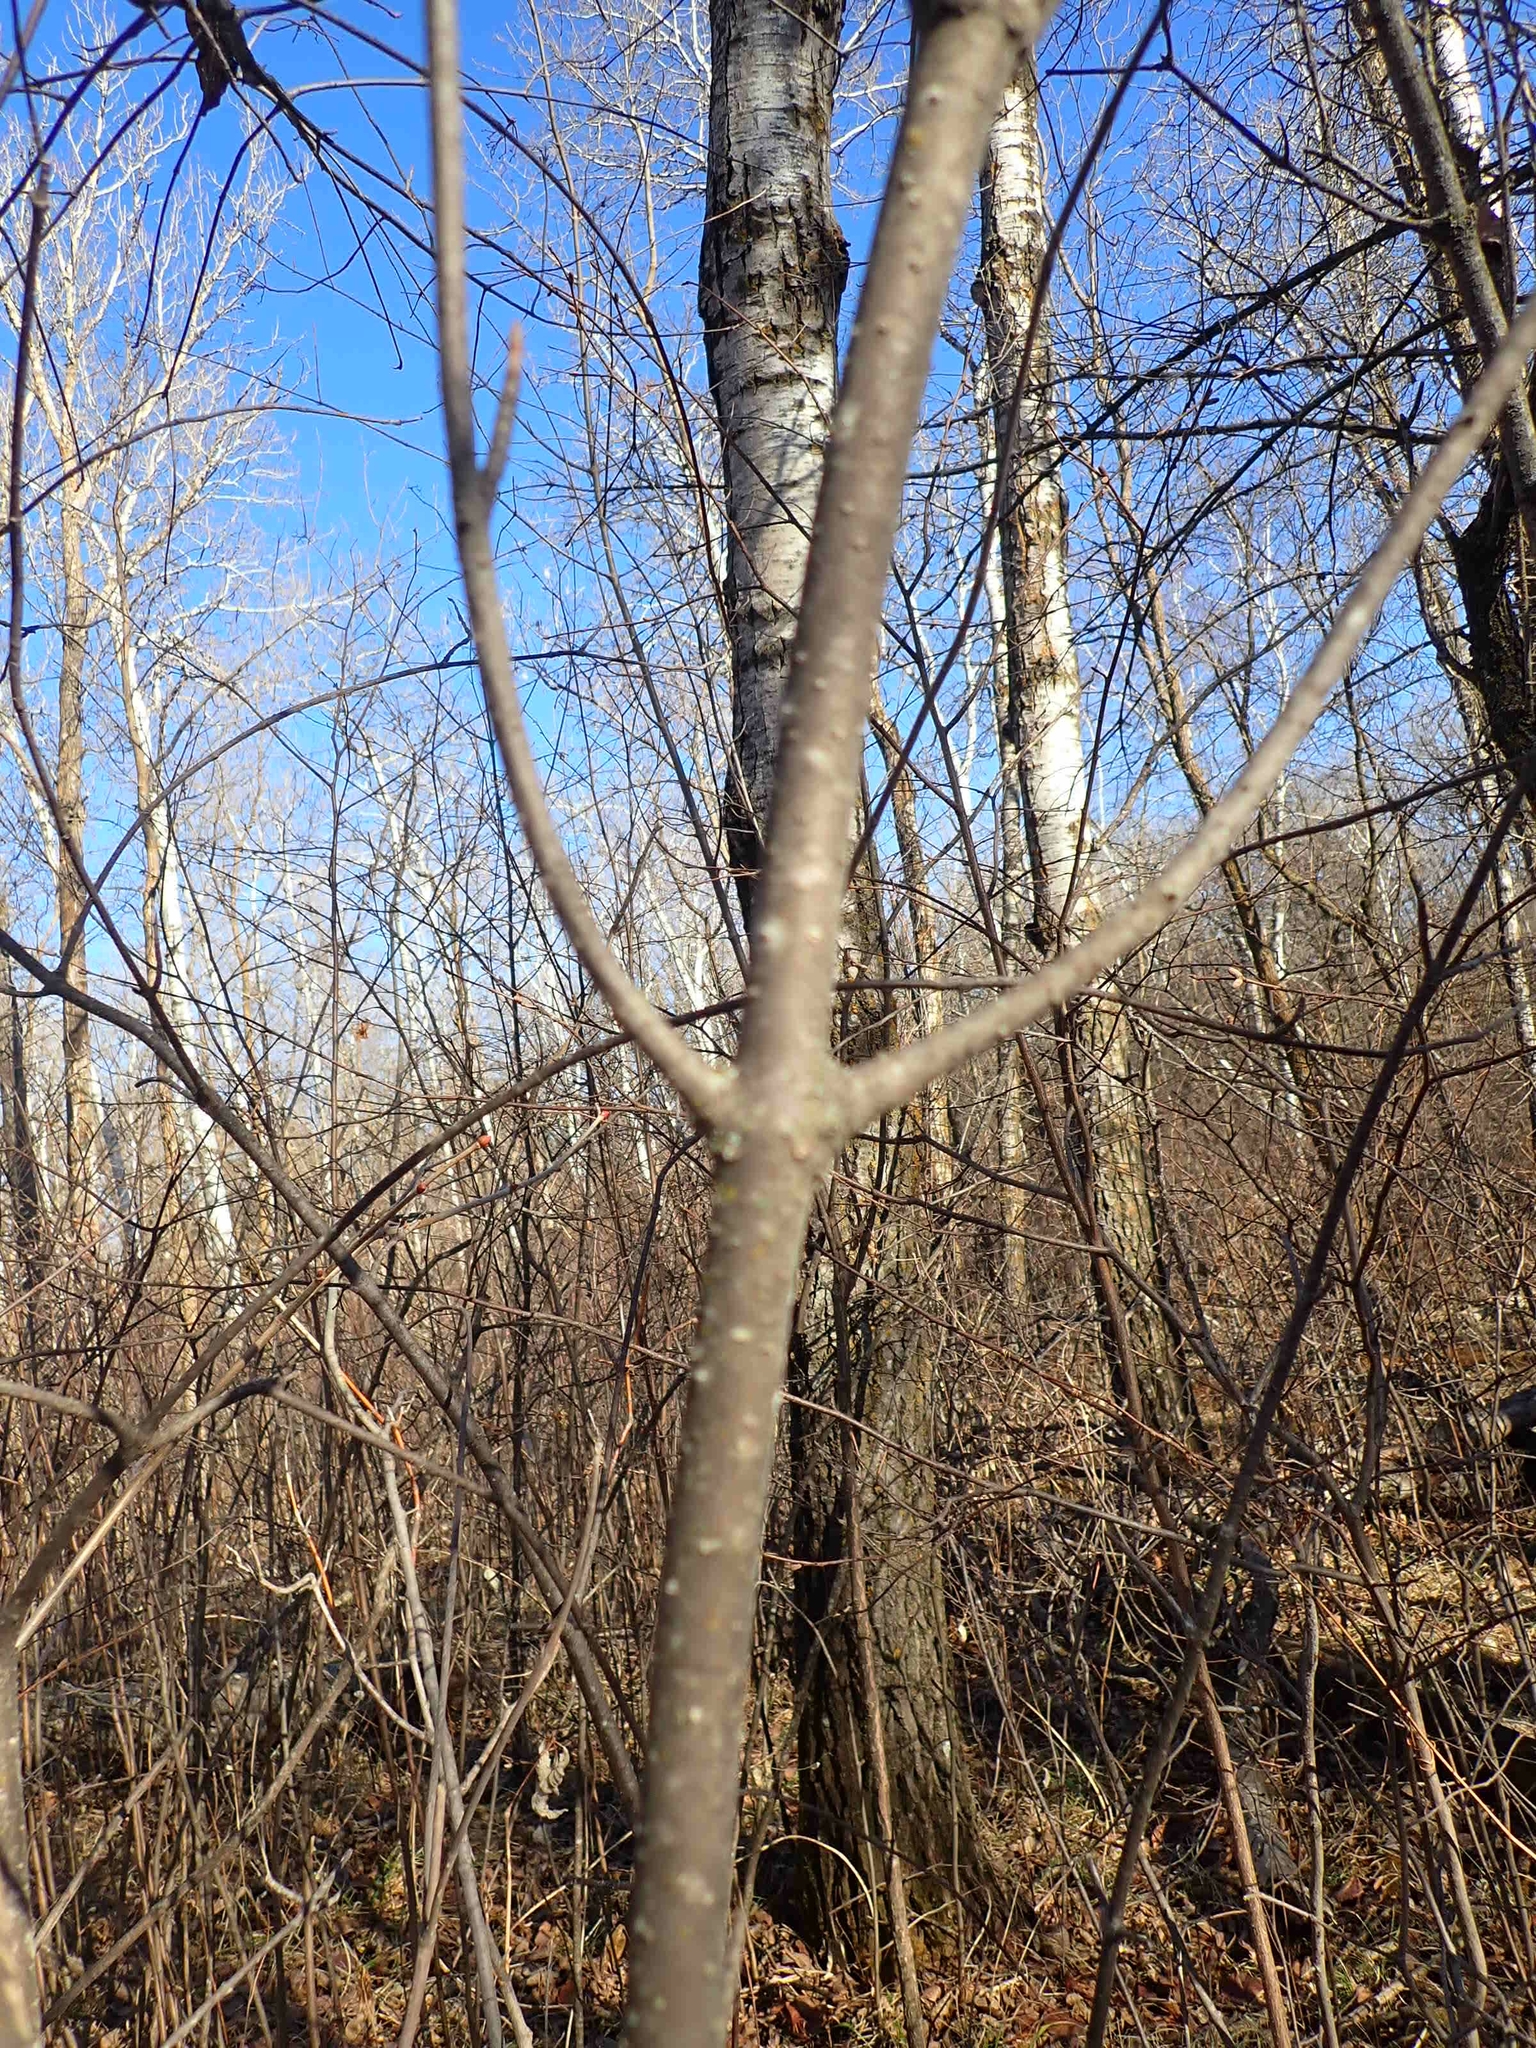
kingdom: Plantae
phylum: Tracheophyta
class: Magnoliopsida
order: Dipsacales
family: Viburnaceae
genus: Viburnum
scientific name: Viburnum lentago
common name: Black haw
